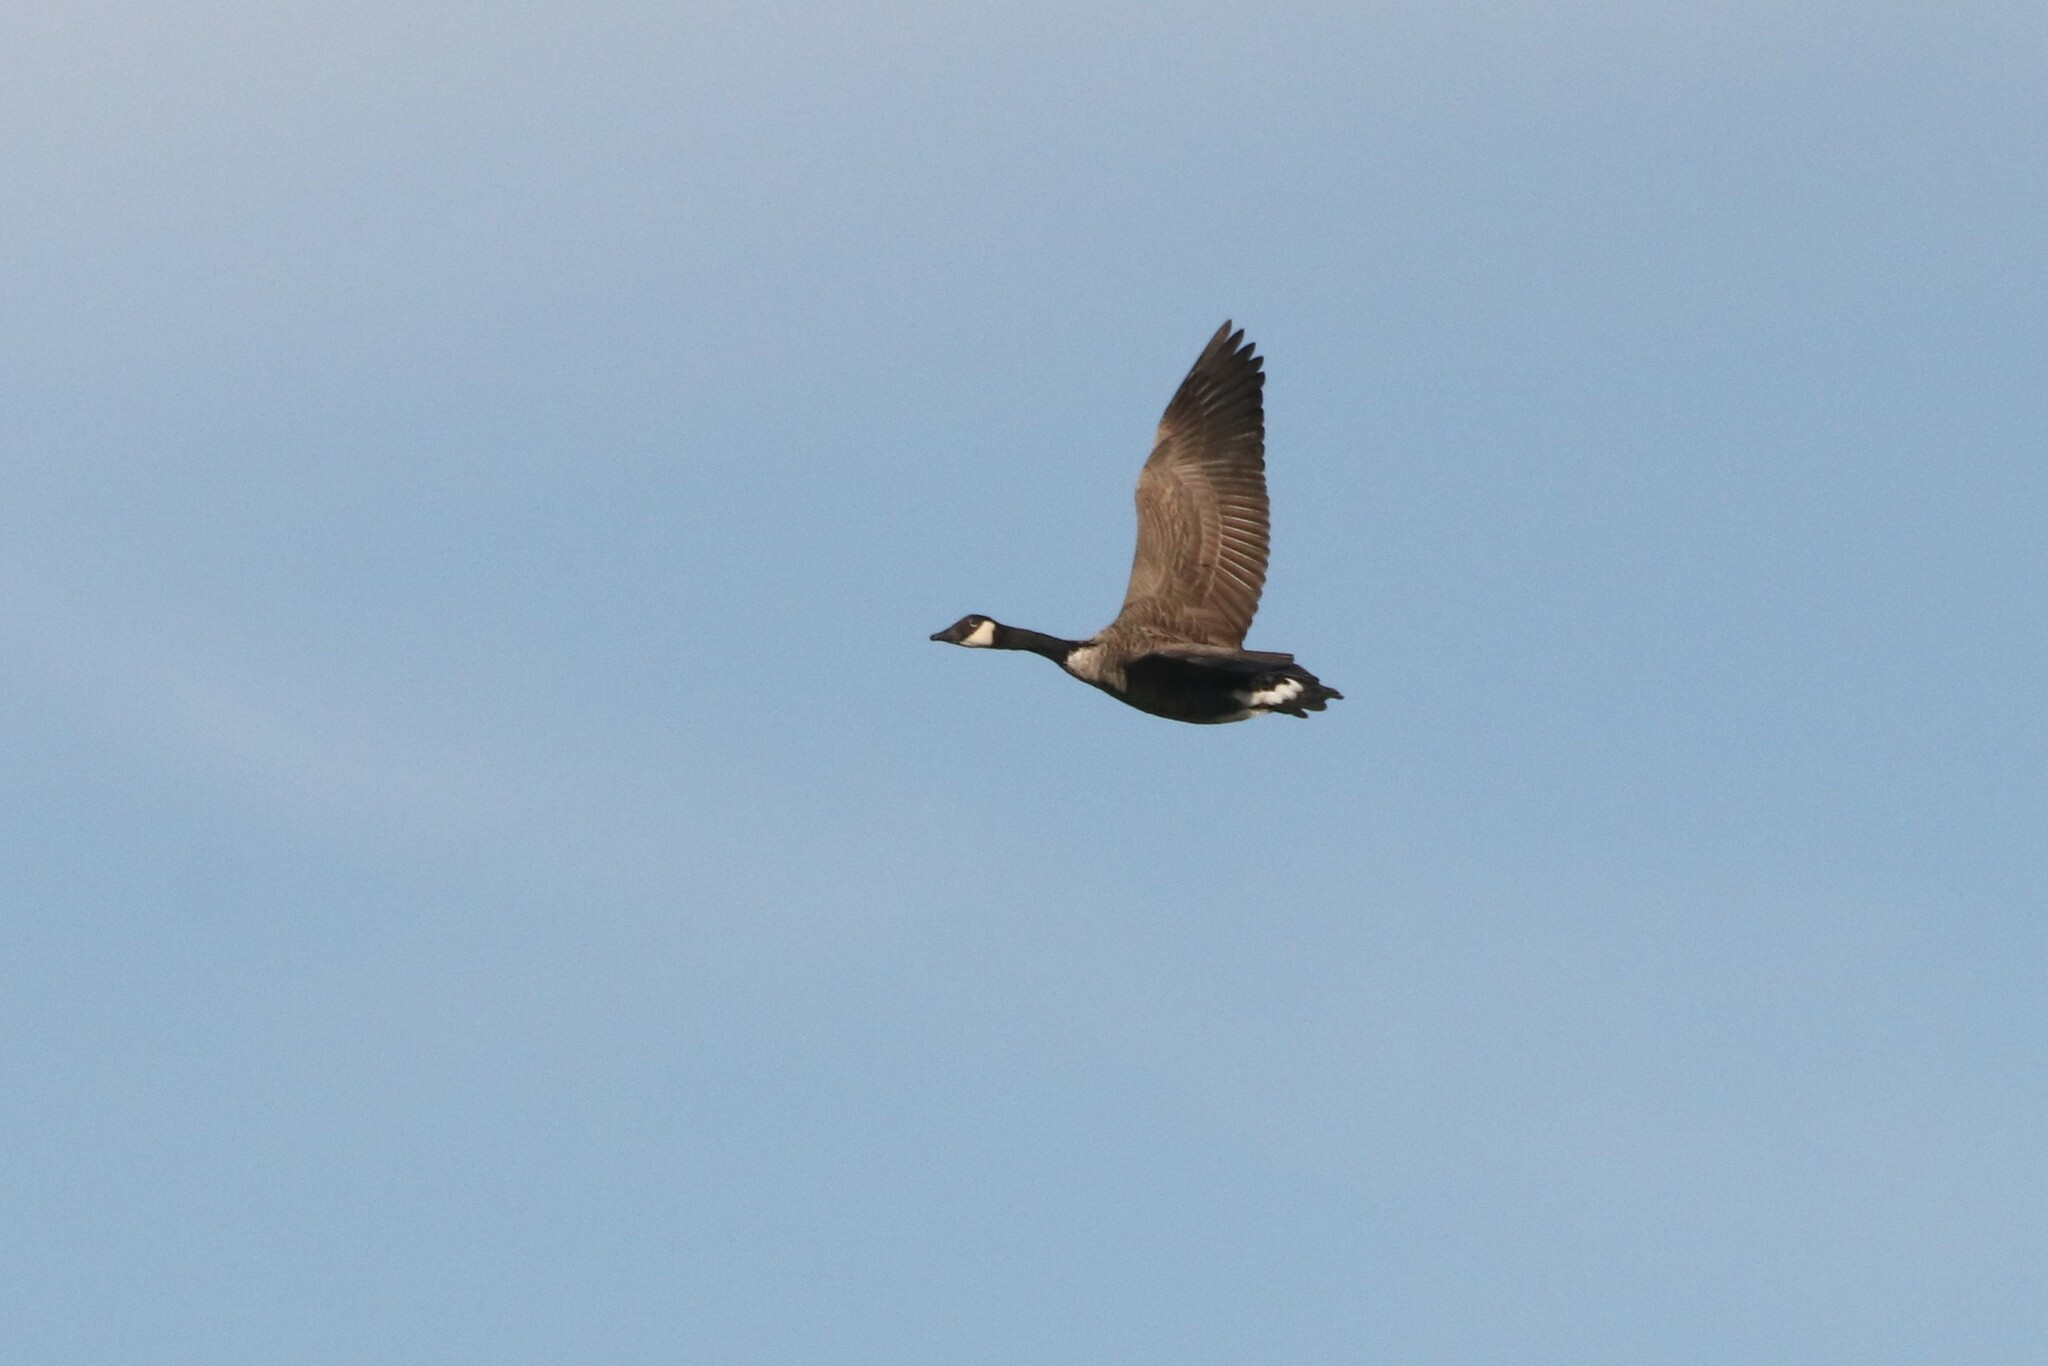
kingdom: Animalia
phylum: Chordata
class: Aves
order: Anseriformes
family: Anatidae
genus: Branta
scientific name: Branta canadensis
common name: Canada goose
